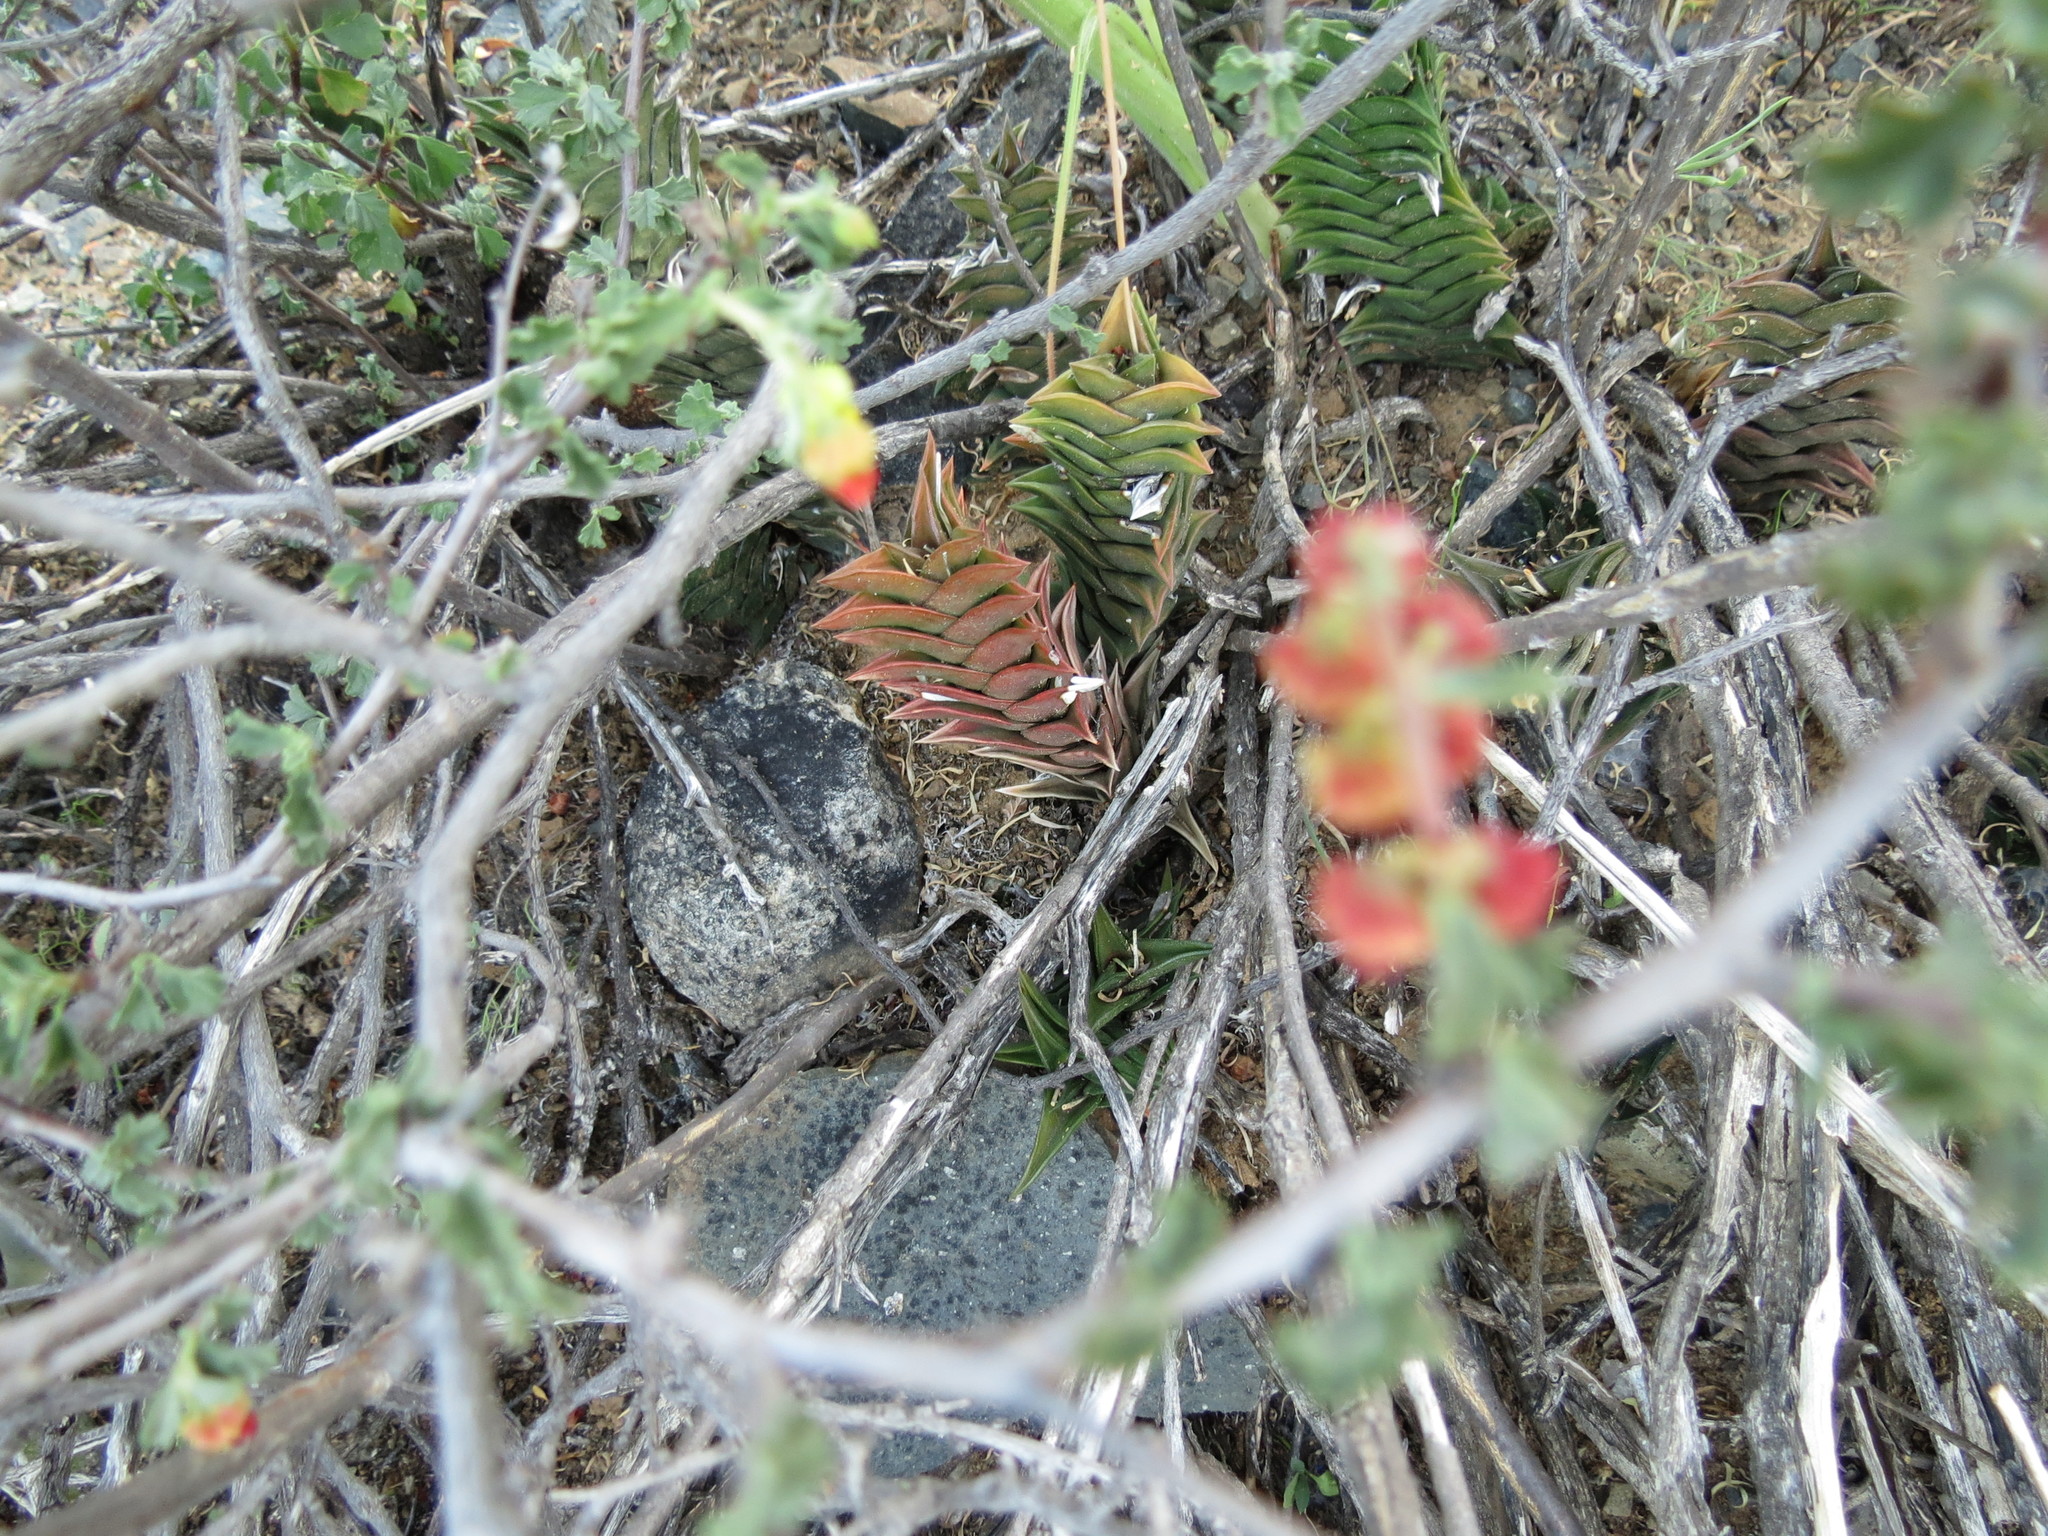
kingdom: Plantae
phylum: Tracheophyta
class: Liliopsida
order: Asparagales
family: Asphodelaceae
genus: Haworthiopsis
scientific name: Haworthiopsis viscosa
